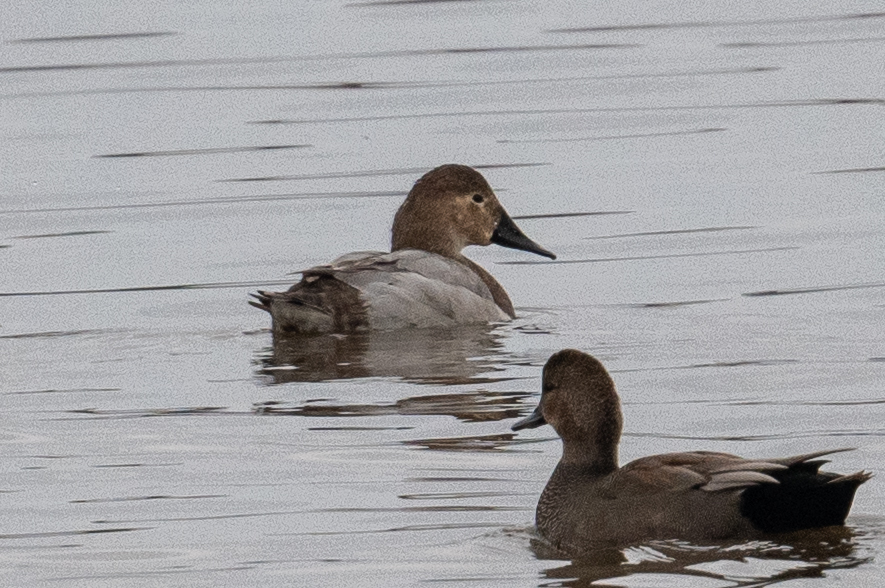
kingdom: Animalia
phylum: Chordata
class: Aves
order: Anseriformes
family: Anatidae
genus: Aythya
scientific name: Aythya valisineria
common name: Canvasback
